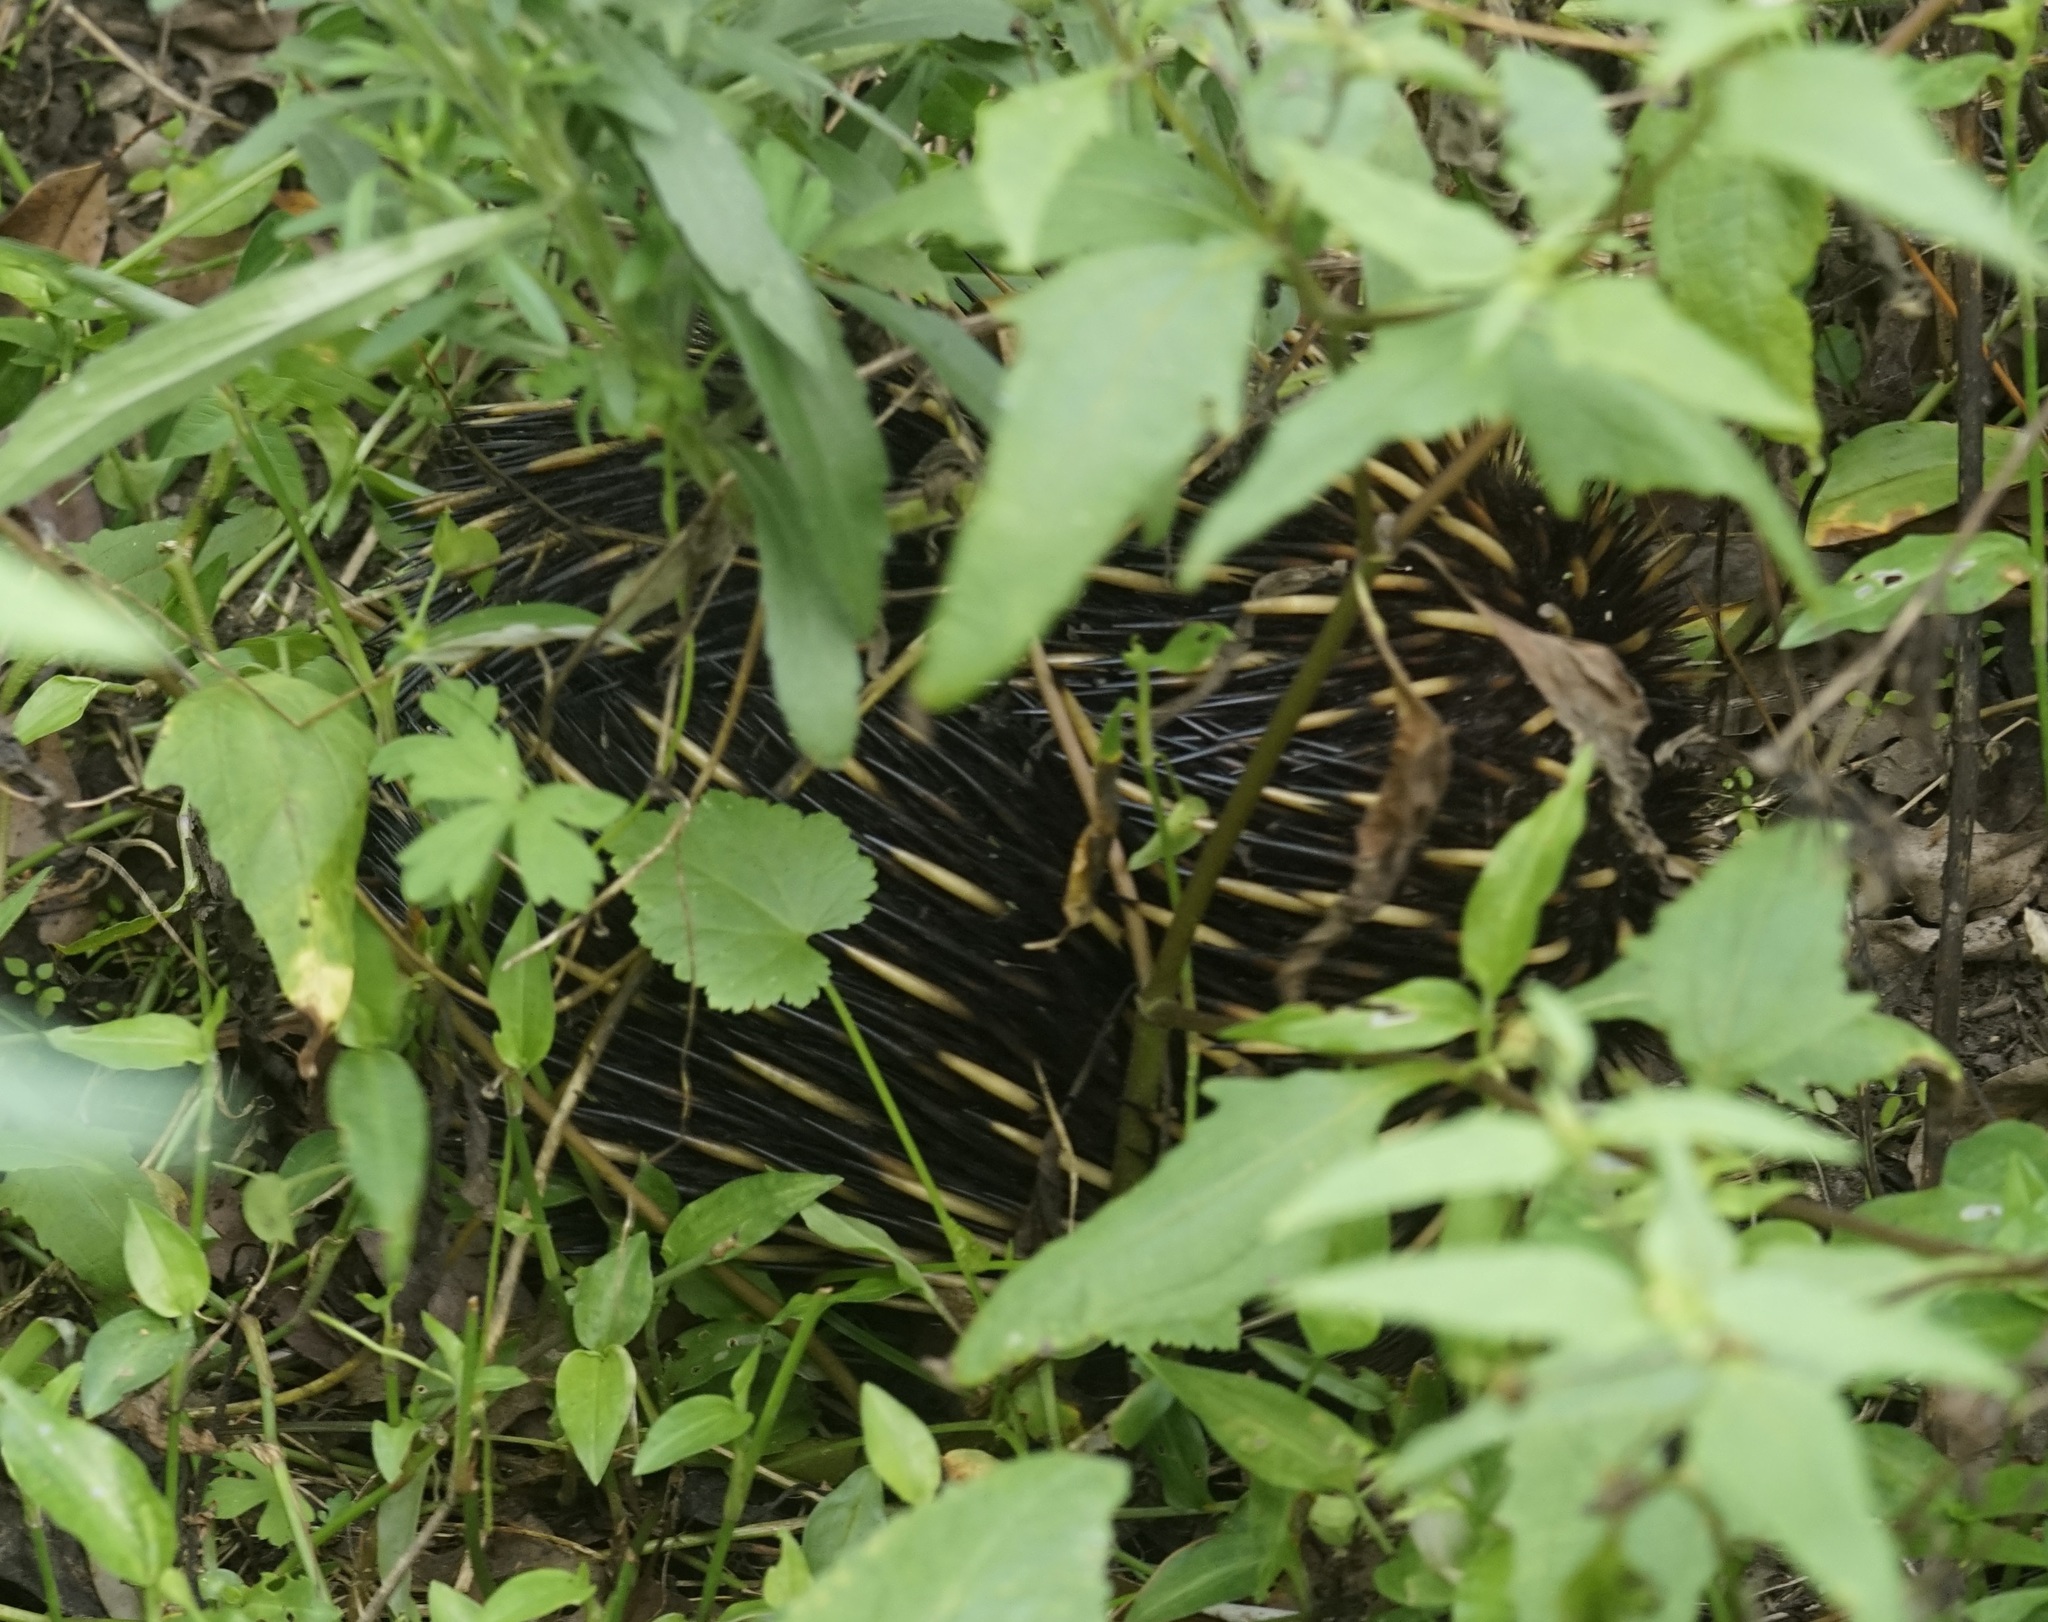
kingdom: Animalia
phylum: Chordata
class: Mammalia
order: Monotremata
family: Tachyglossidae
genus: Tachyglossus
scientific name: Tachyglossus aculeatus
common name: Short-beaked echidna
